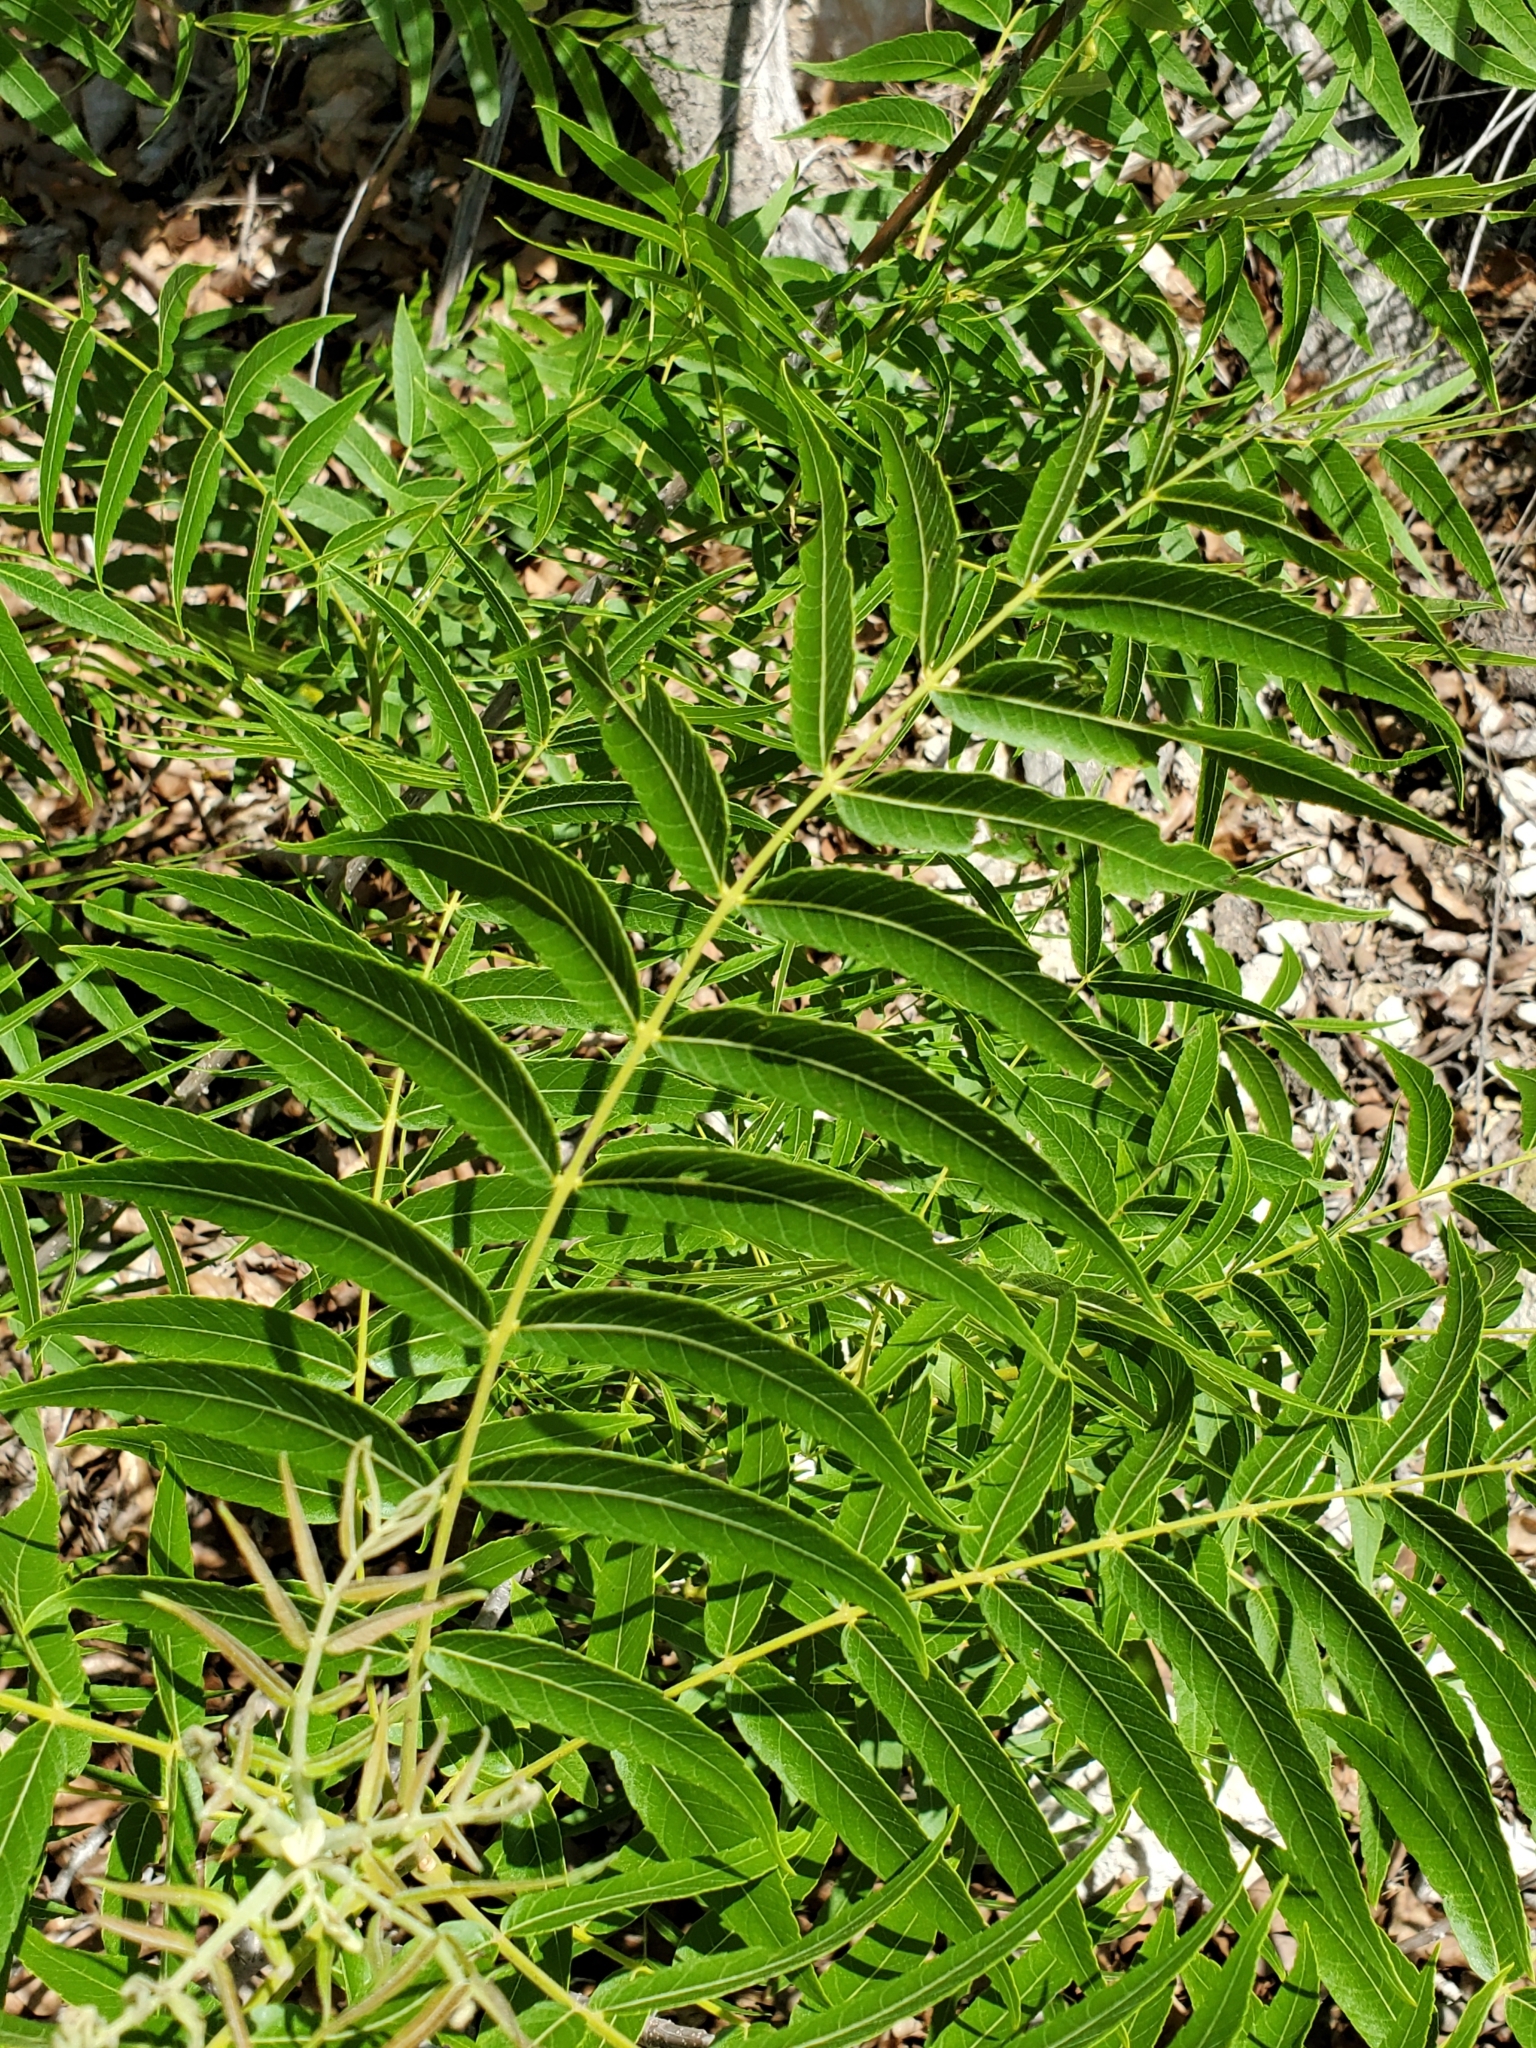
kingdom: Plantae
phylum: Tracheophyta
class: Magnoliopsida
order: Fagales
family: Juglandaceae
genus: Juglans
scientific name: Juglans microcarpa
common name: Texas walnut
